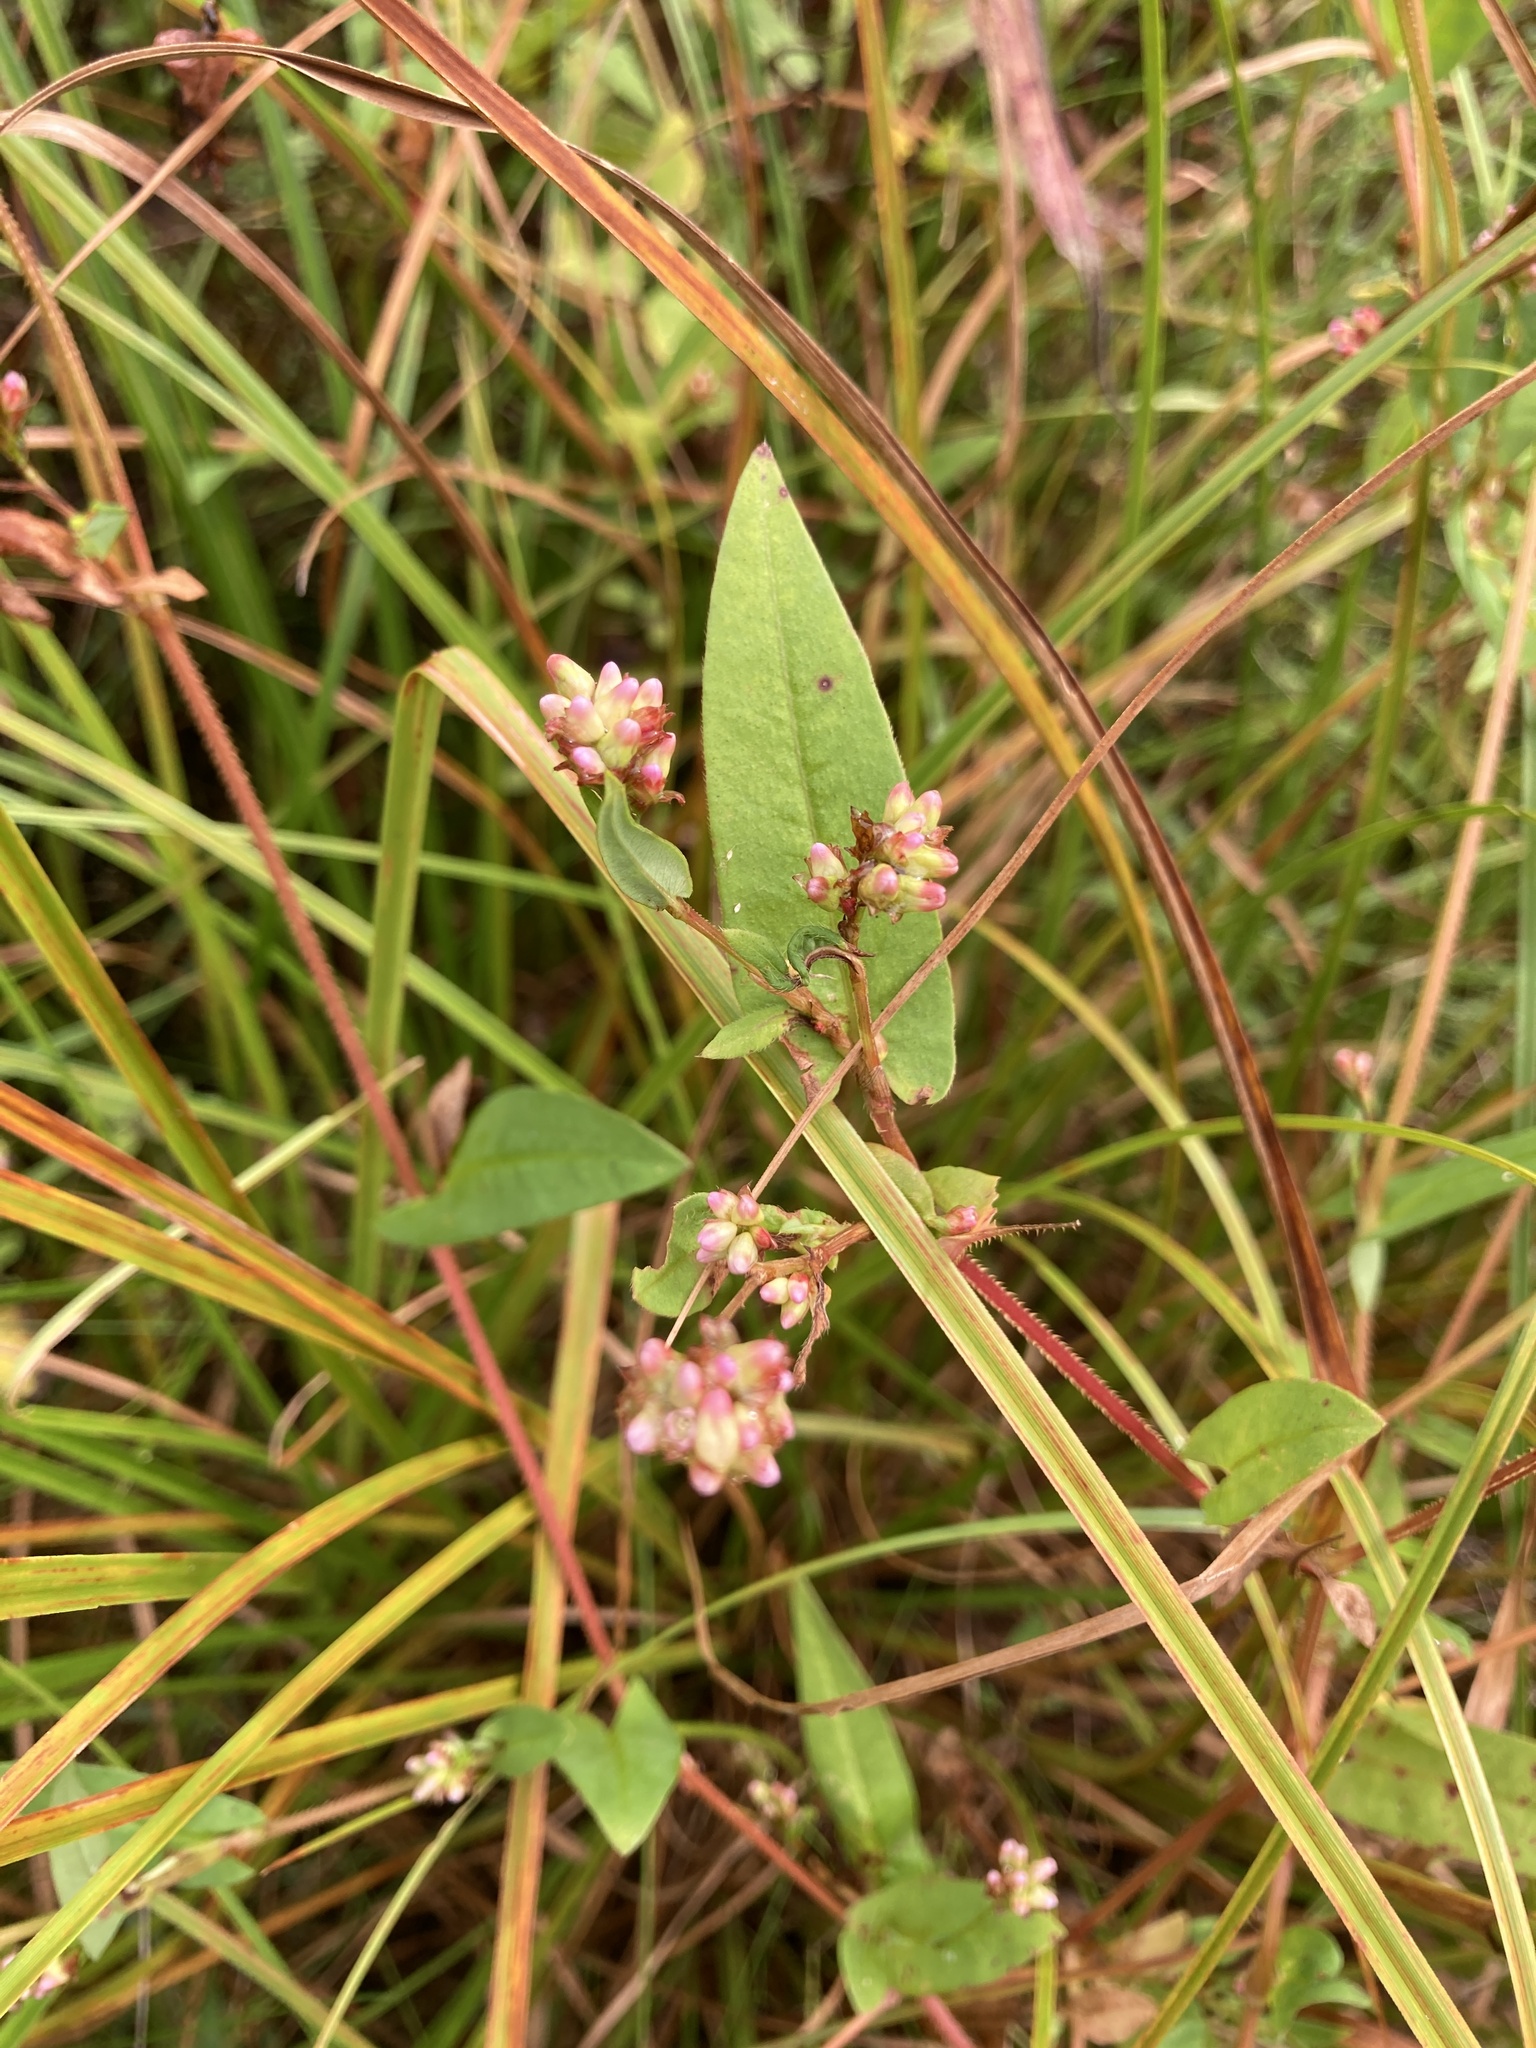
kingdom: Plantae
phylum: Tracheophyta
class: Magnoliopsida
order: Caryophyllales
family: Polygonaceae
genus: Persicaria
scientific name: Persicaria sagittata
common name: American tearthumb
